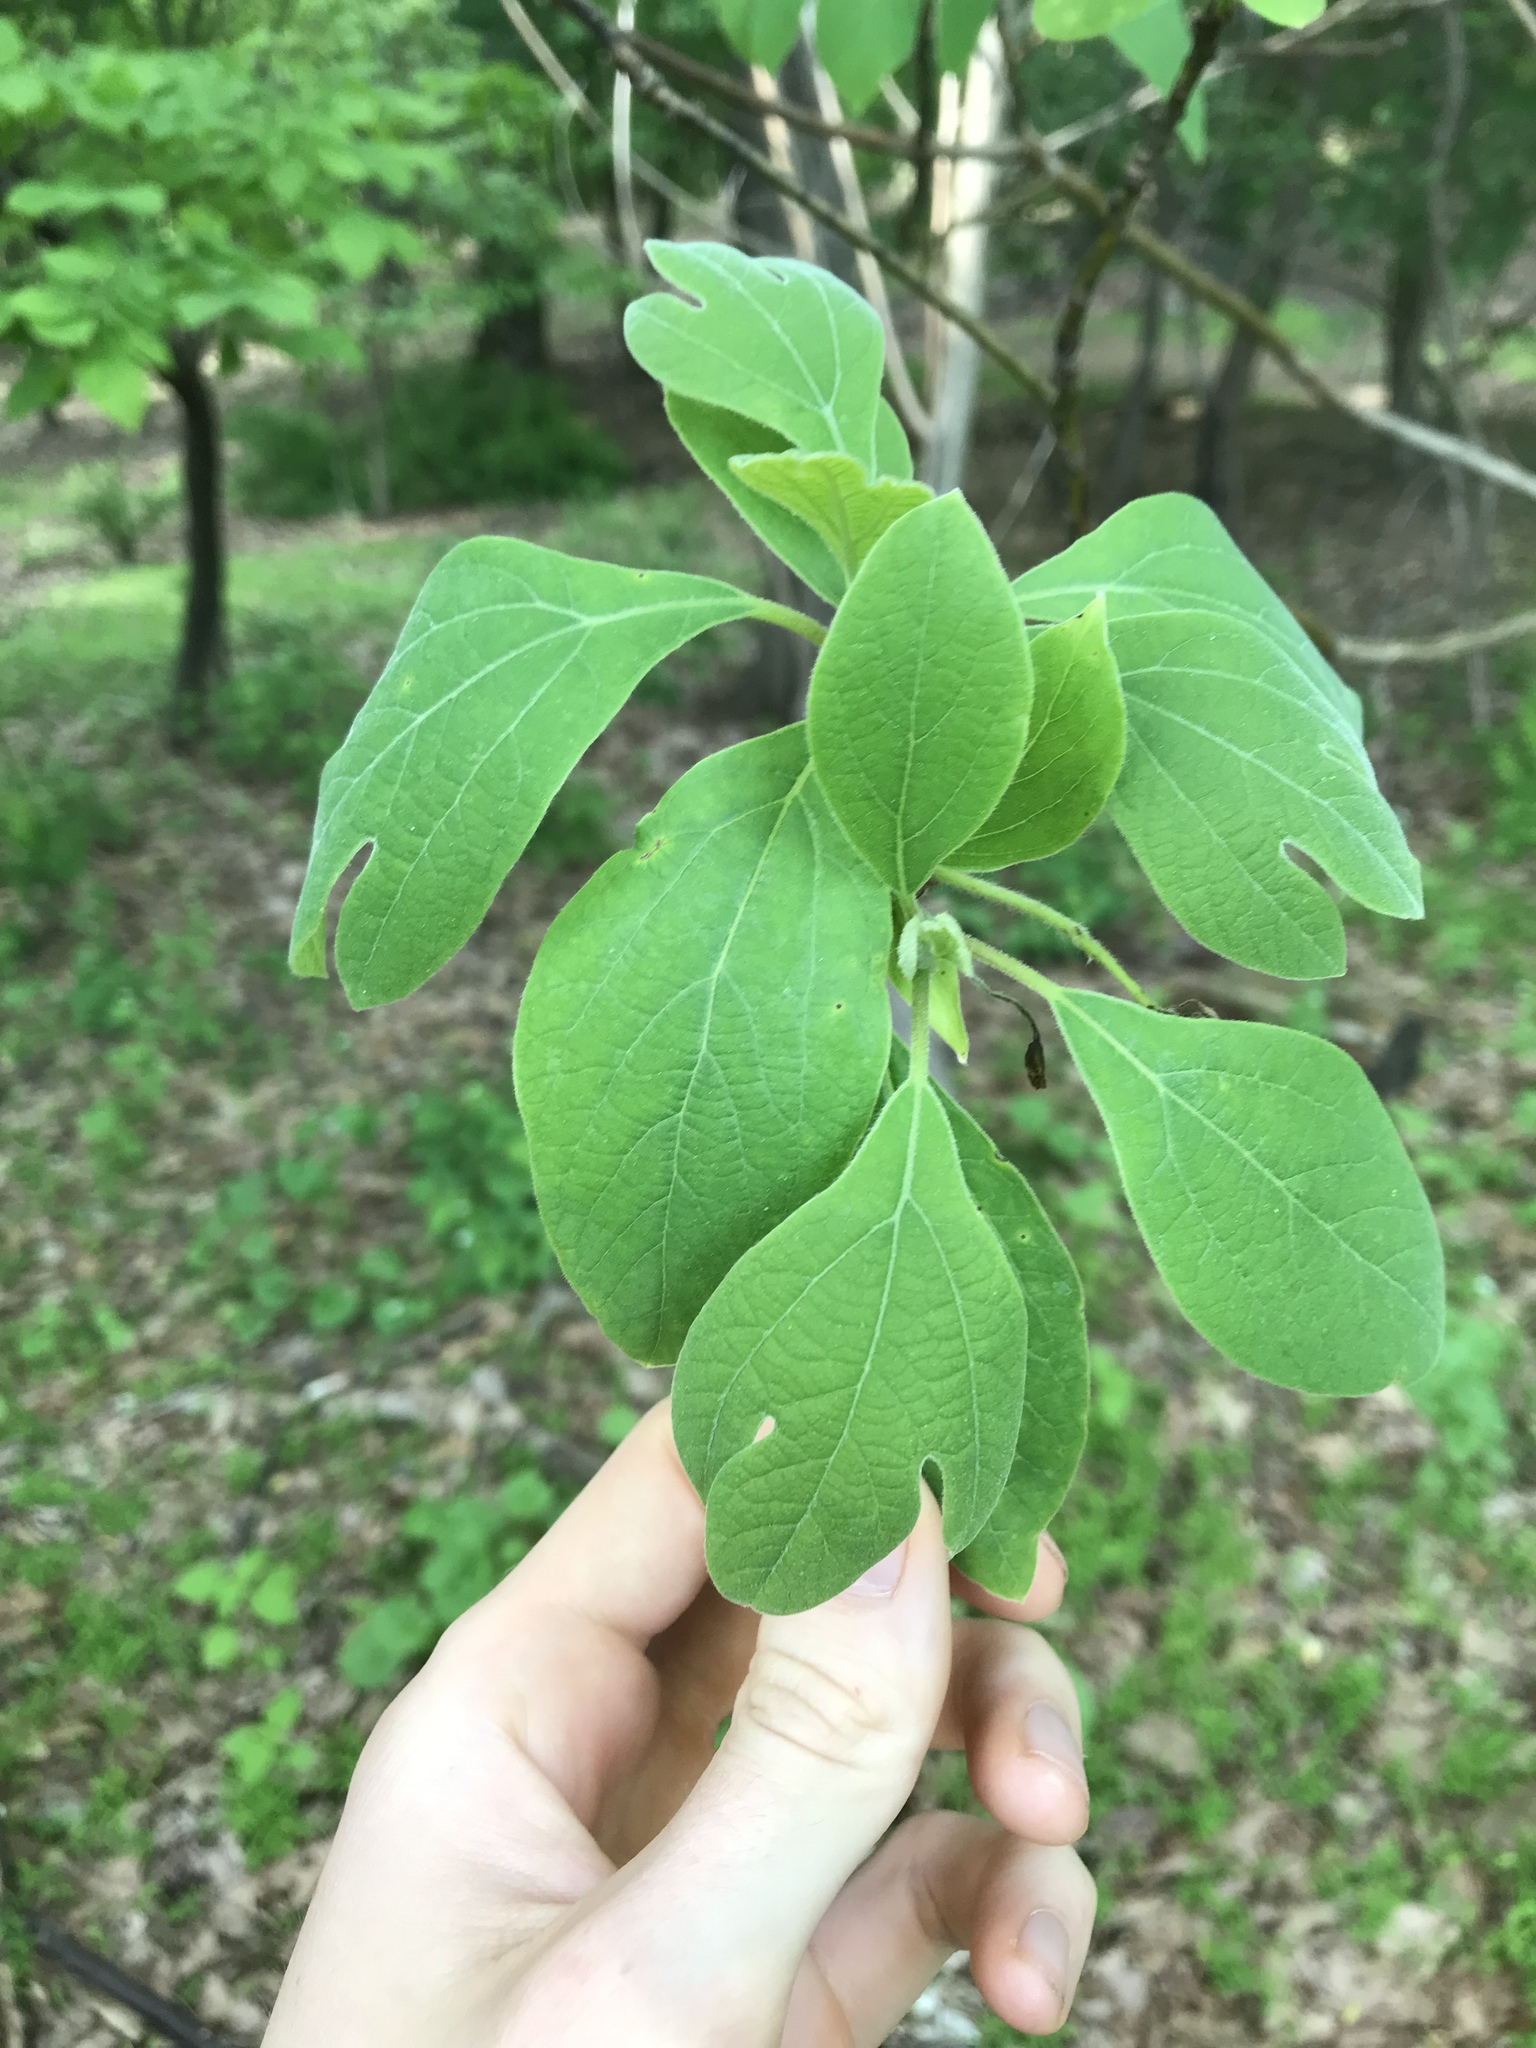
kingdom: Plantae
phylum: Tracheophyta
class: Magnoliopsida
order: Laurales
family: Lauraceae
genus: Sassafras
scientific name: Sassafras albidum
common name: Sassafras
